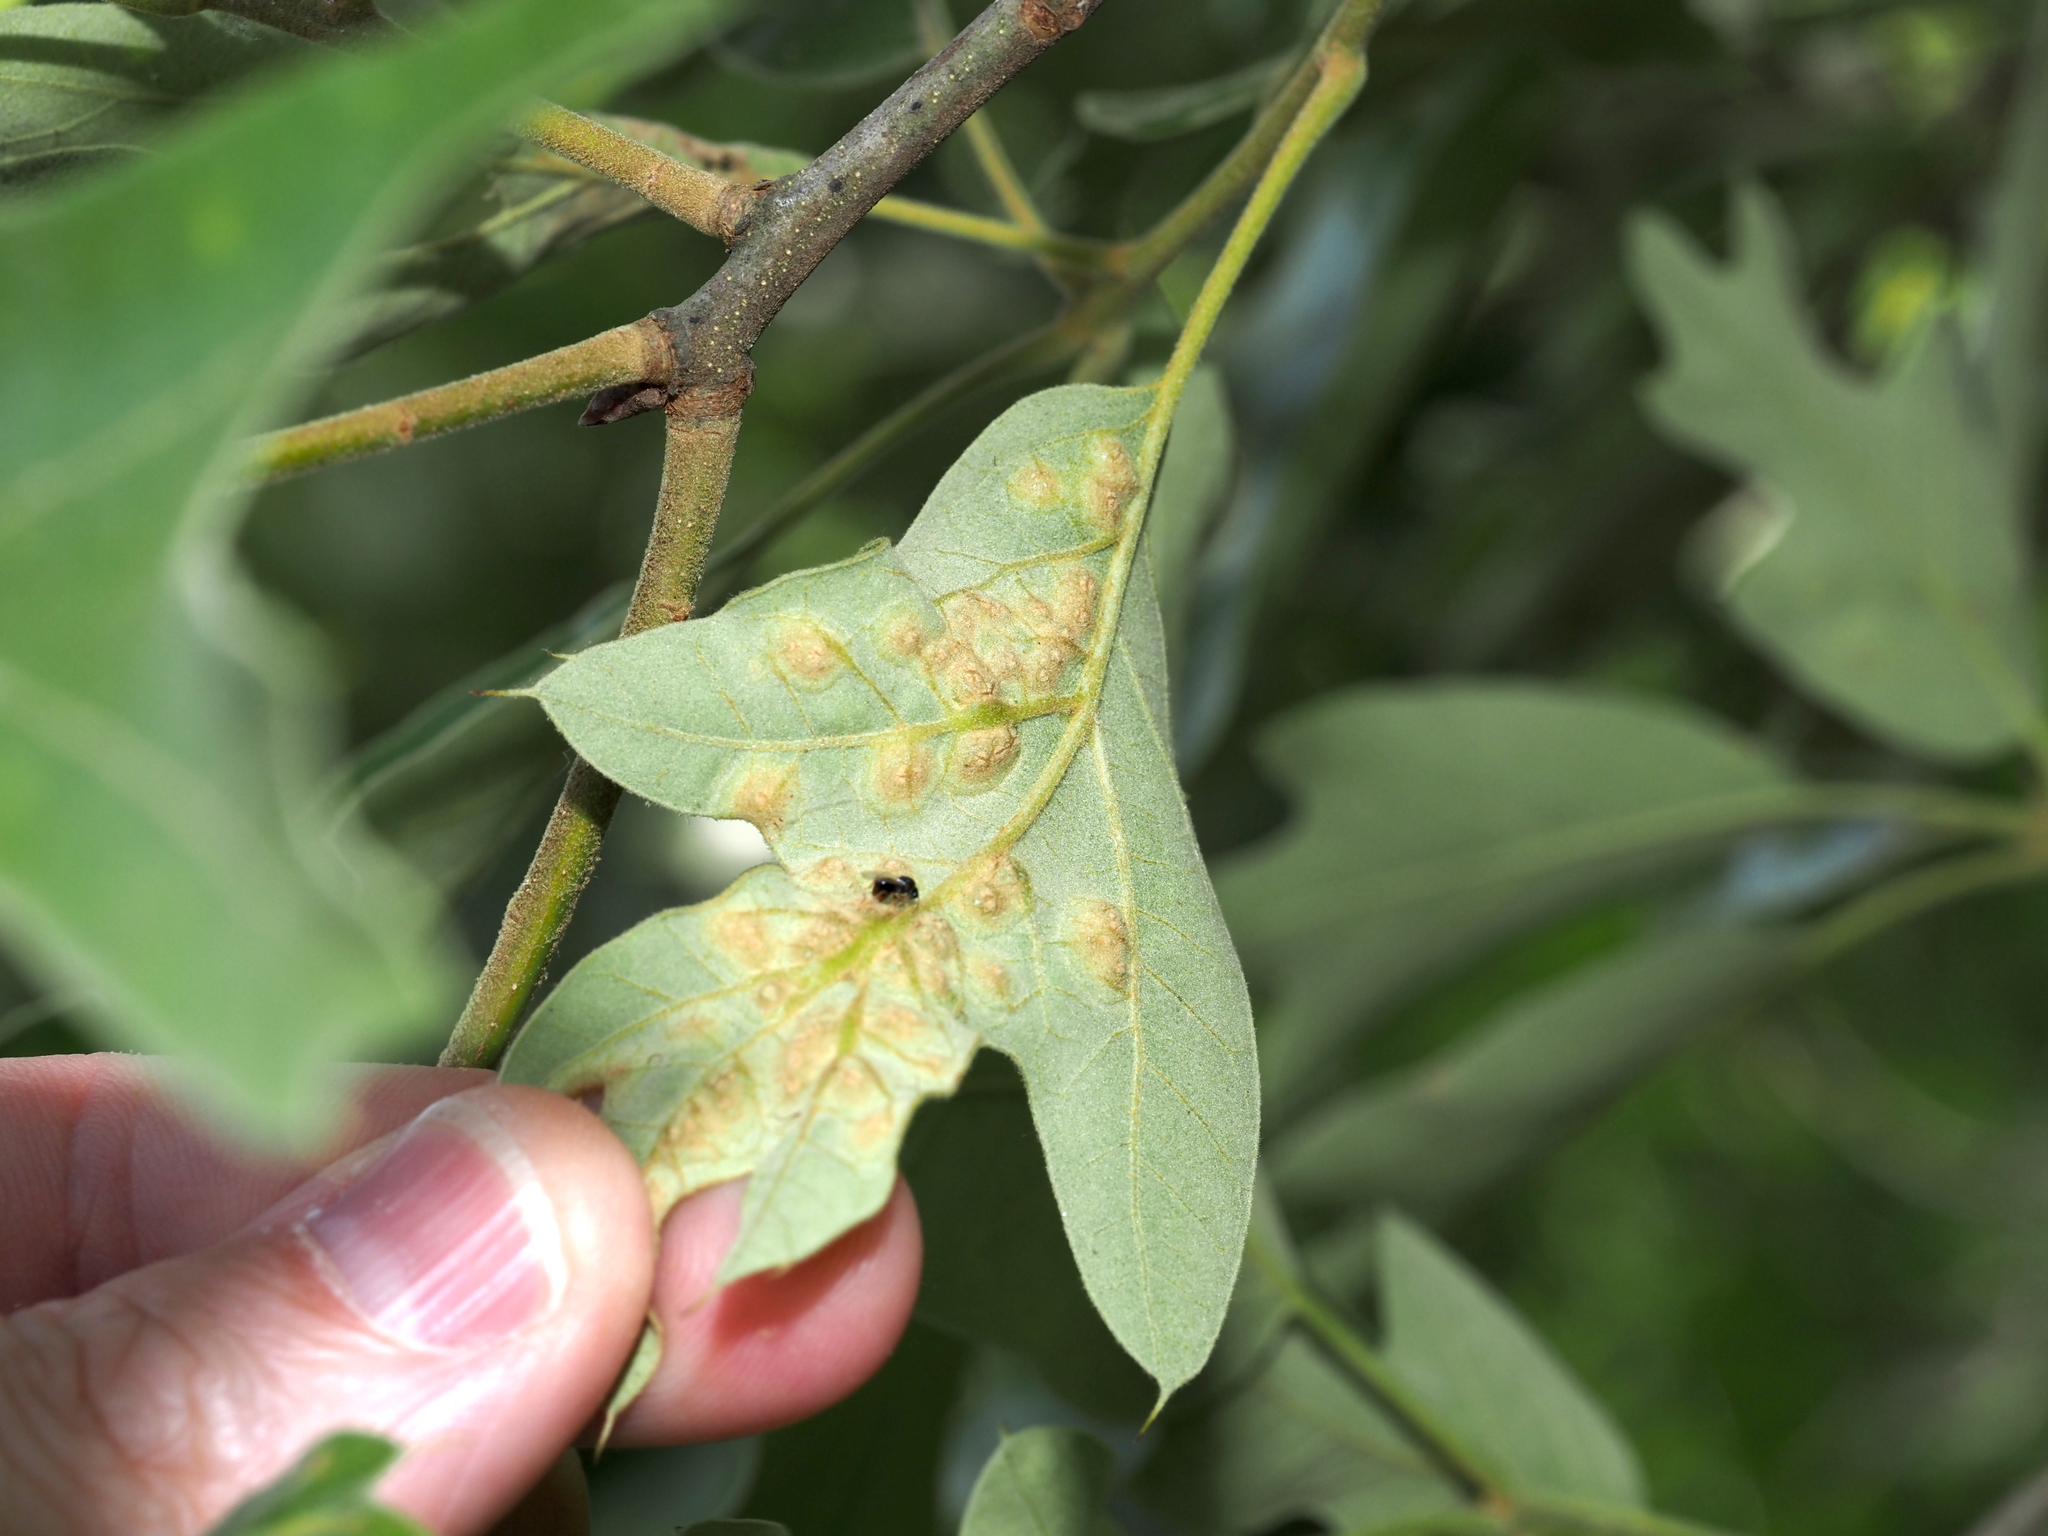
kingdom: Animalia
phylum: Arthropoda
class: Insecta
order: Diptera
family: Cecidomyiidae
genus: Polystepha
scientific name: Polystepha symmetrica
